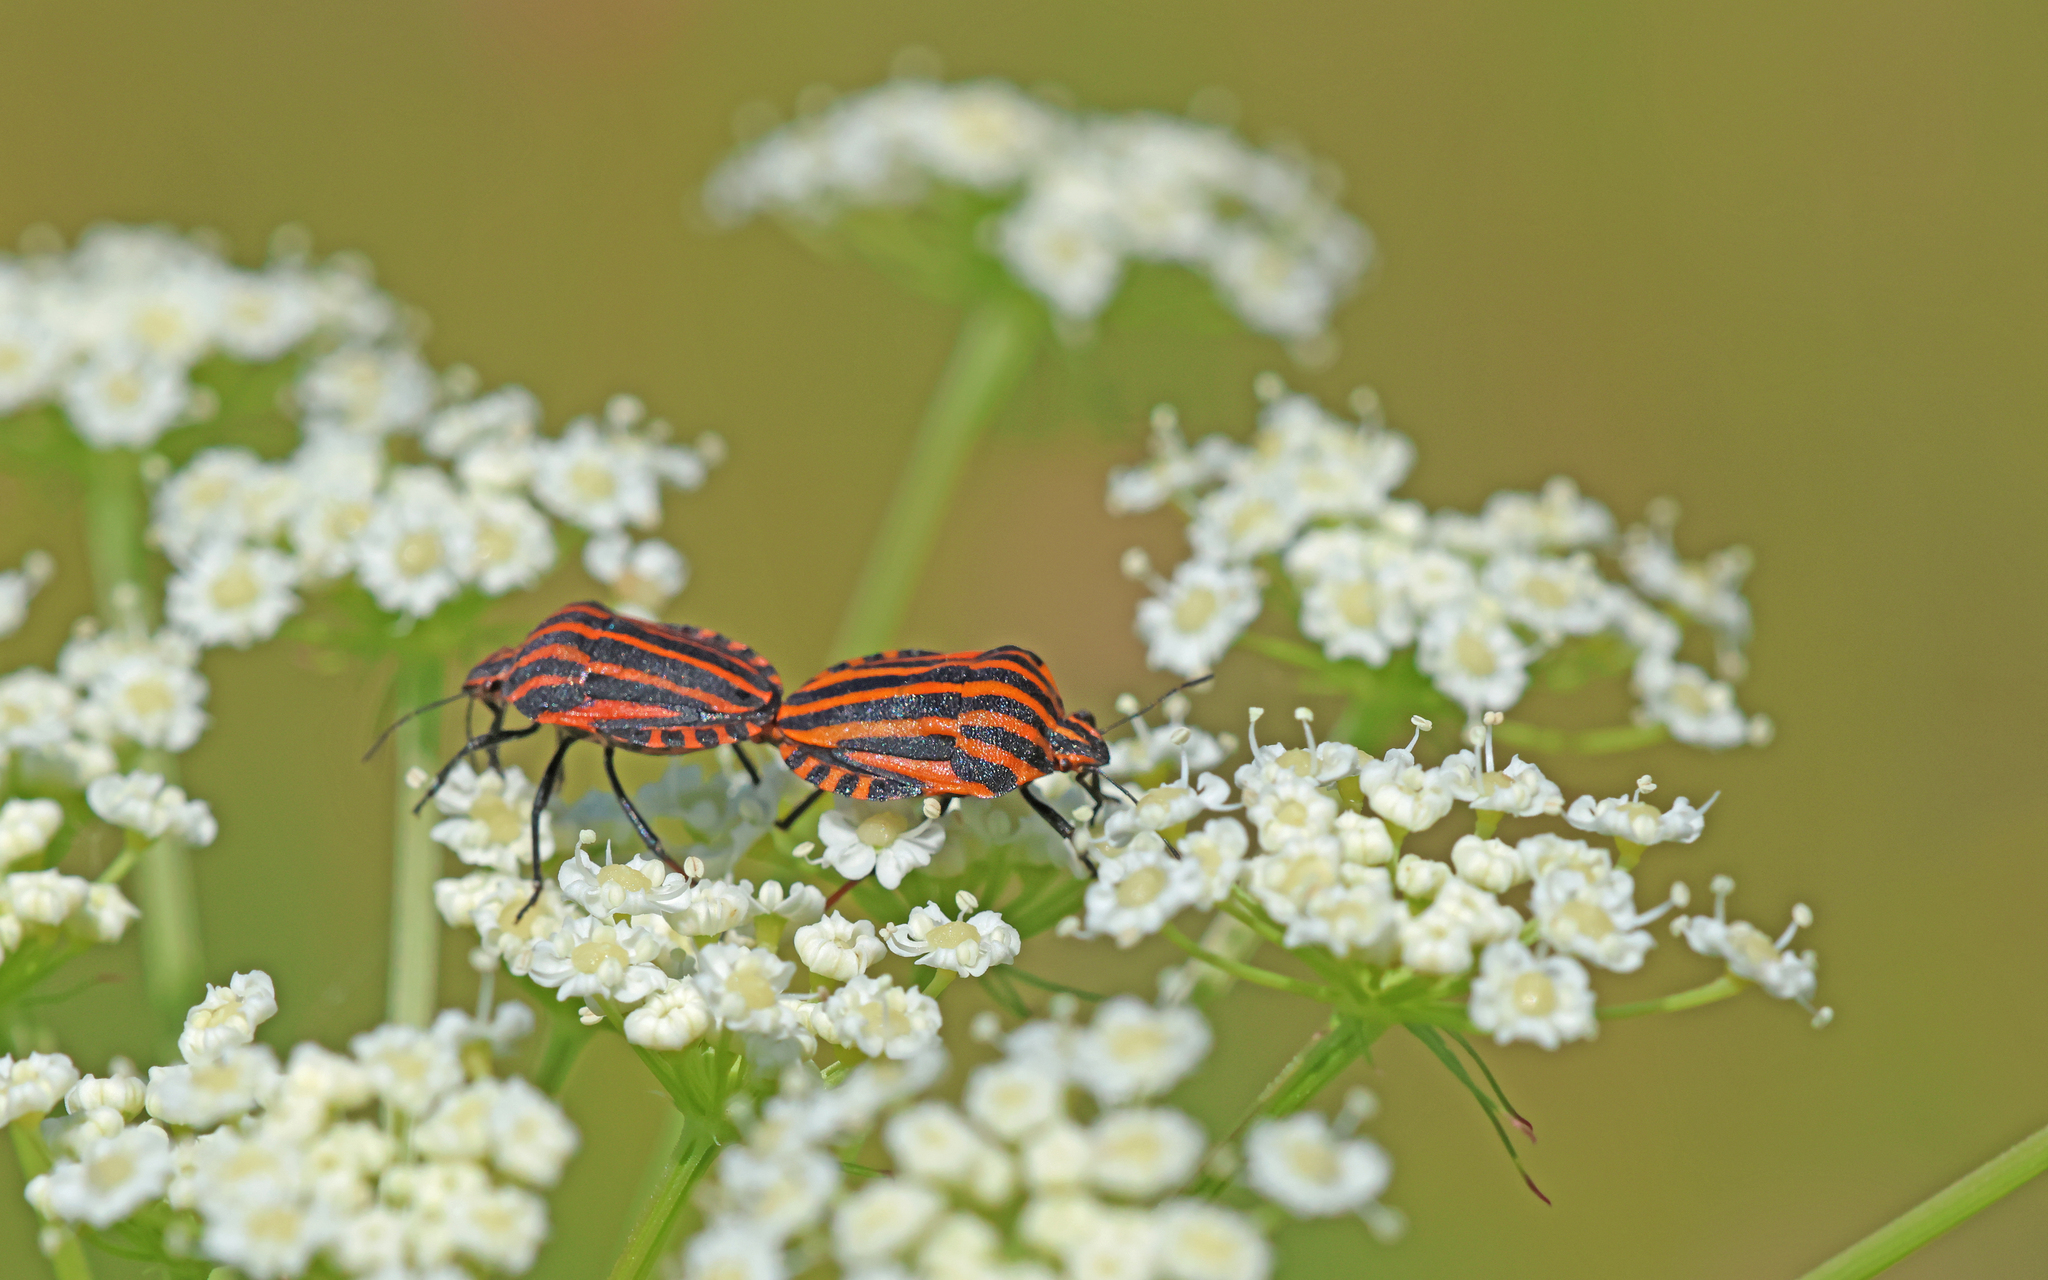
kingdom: Animalia
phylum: Arthropoda
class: Insecta
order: Hemiptera
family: Pentatomidae
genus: Graphosoma
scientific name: Graphosoma italicum
